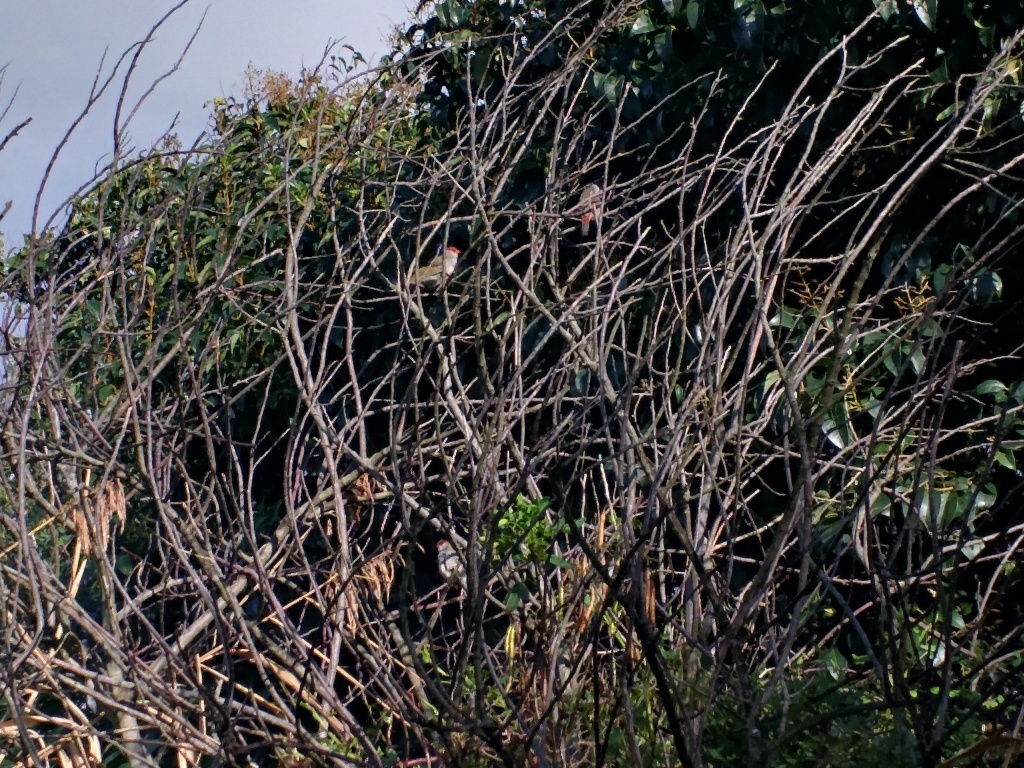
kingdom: Animalia
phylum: Chordata
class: Aves
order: Passeriformes
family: Estrildidae
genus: Neochmia
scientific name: Neochmia temporalis
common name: Red-browed finch
